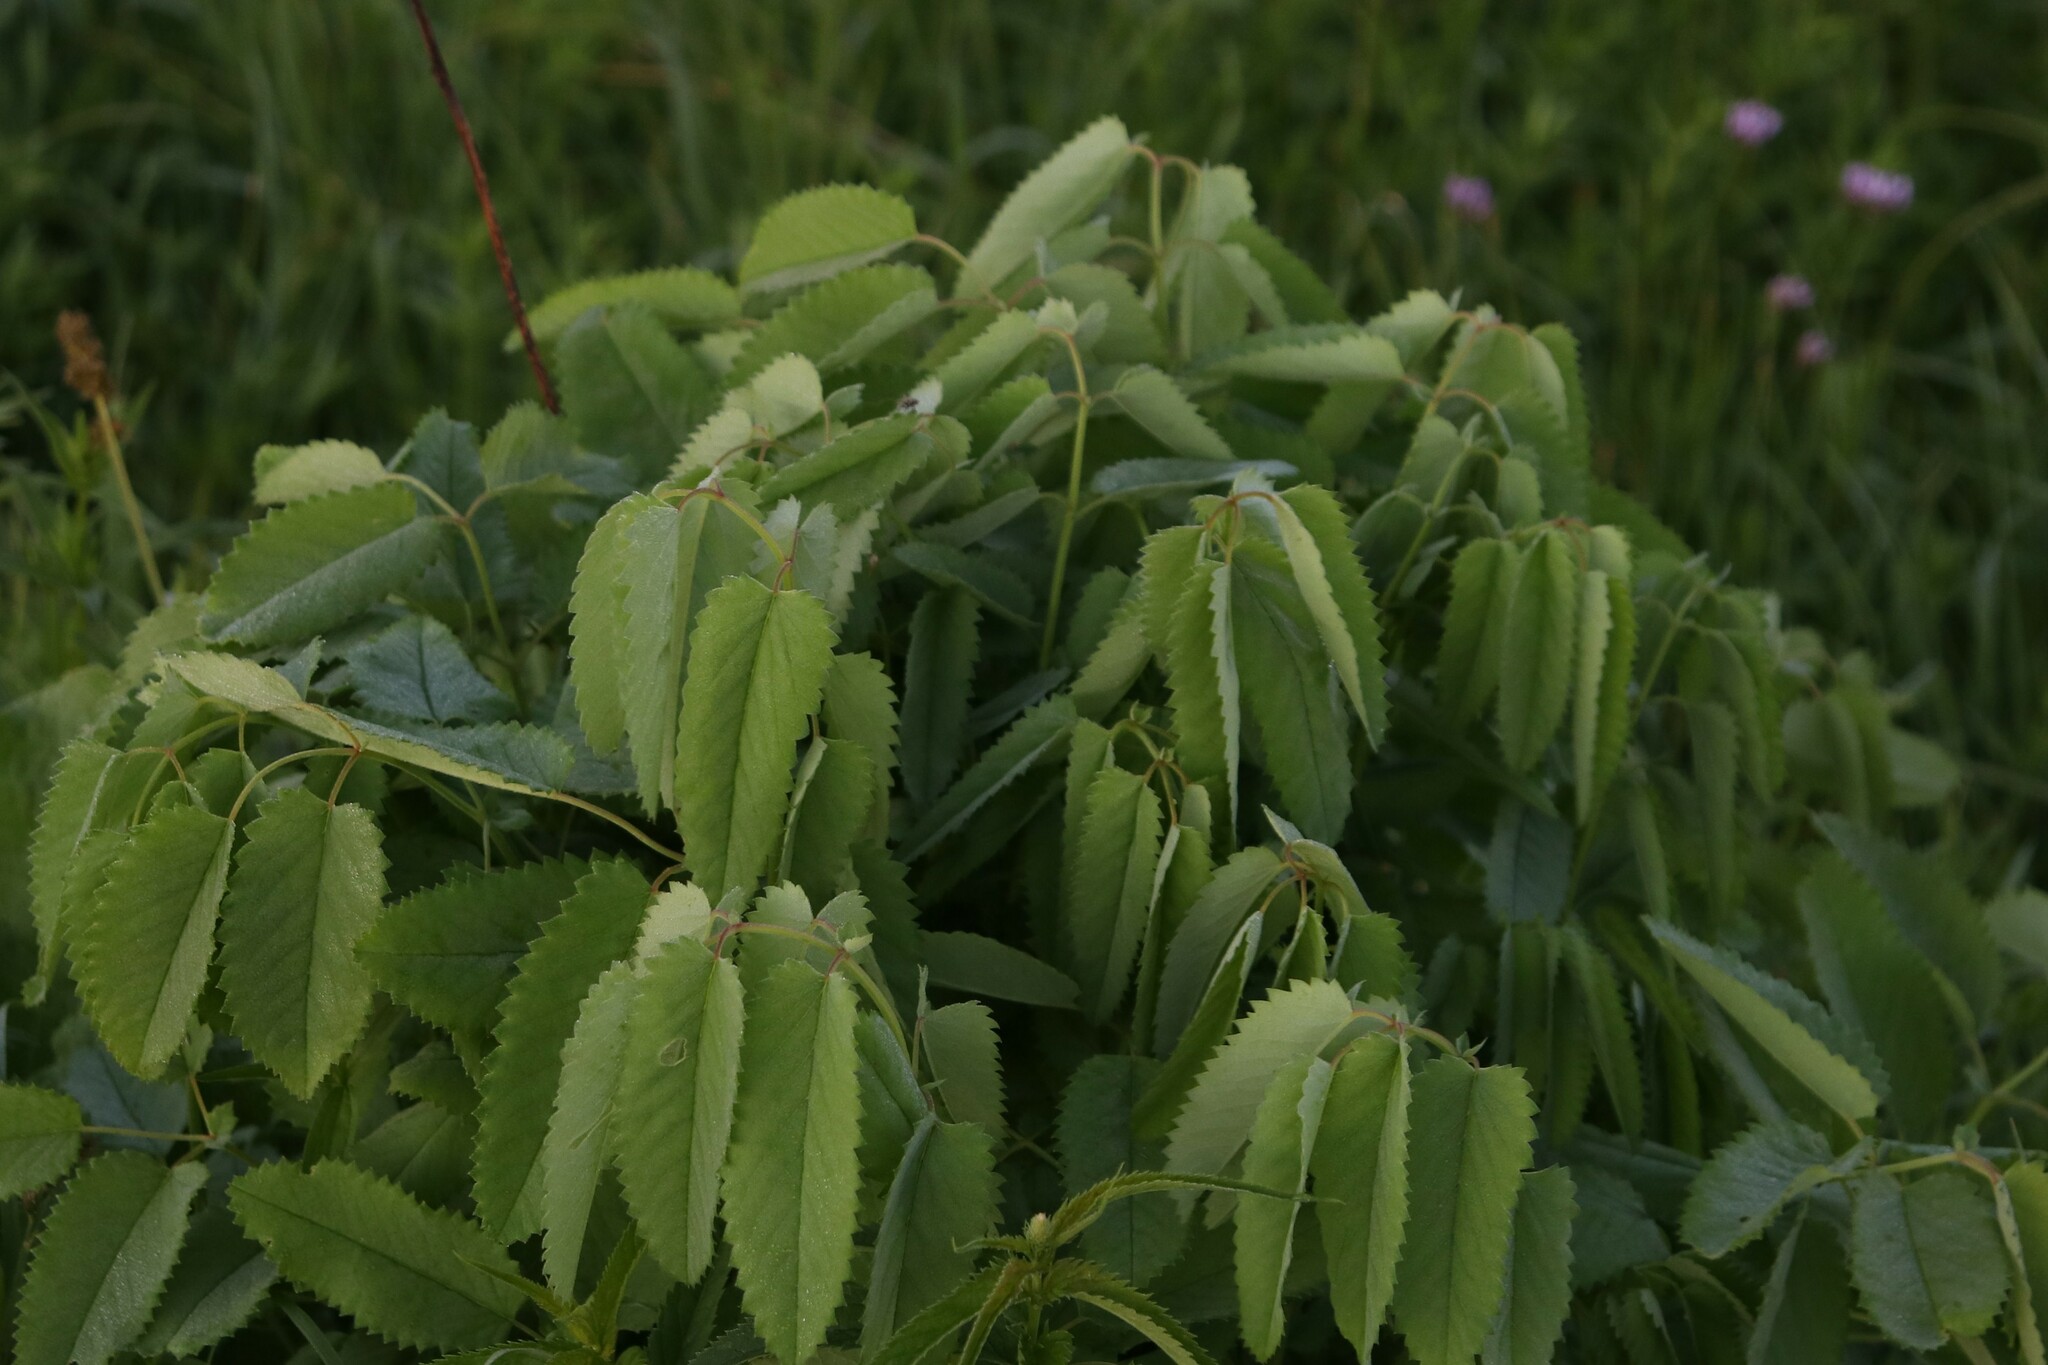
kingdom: Plantae
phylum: Tracheophyta
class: Magnoliopsida
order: Rosales
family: Rosaceae
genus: Sanguisorba
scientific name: Sanguisorba officinalis
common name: Great burnet
